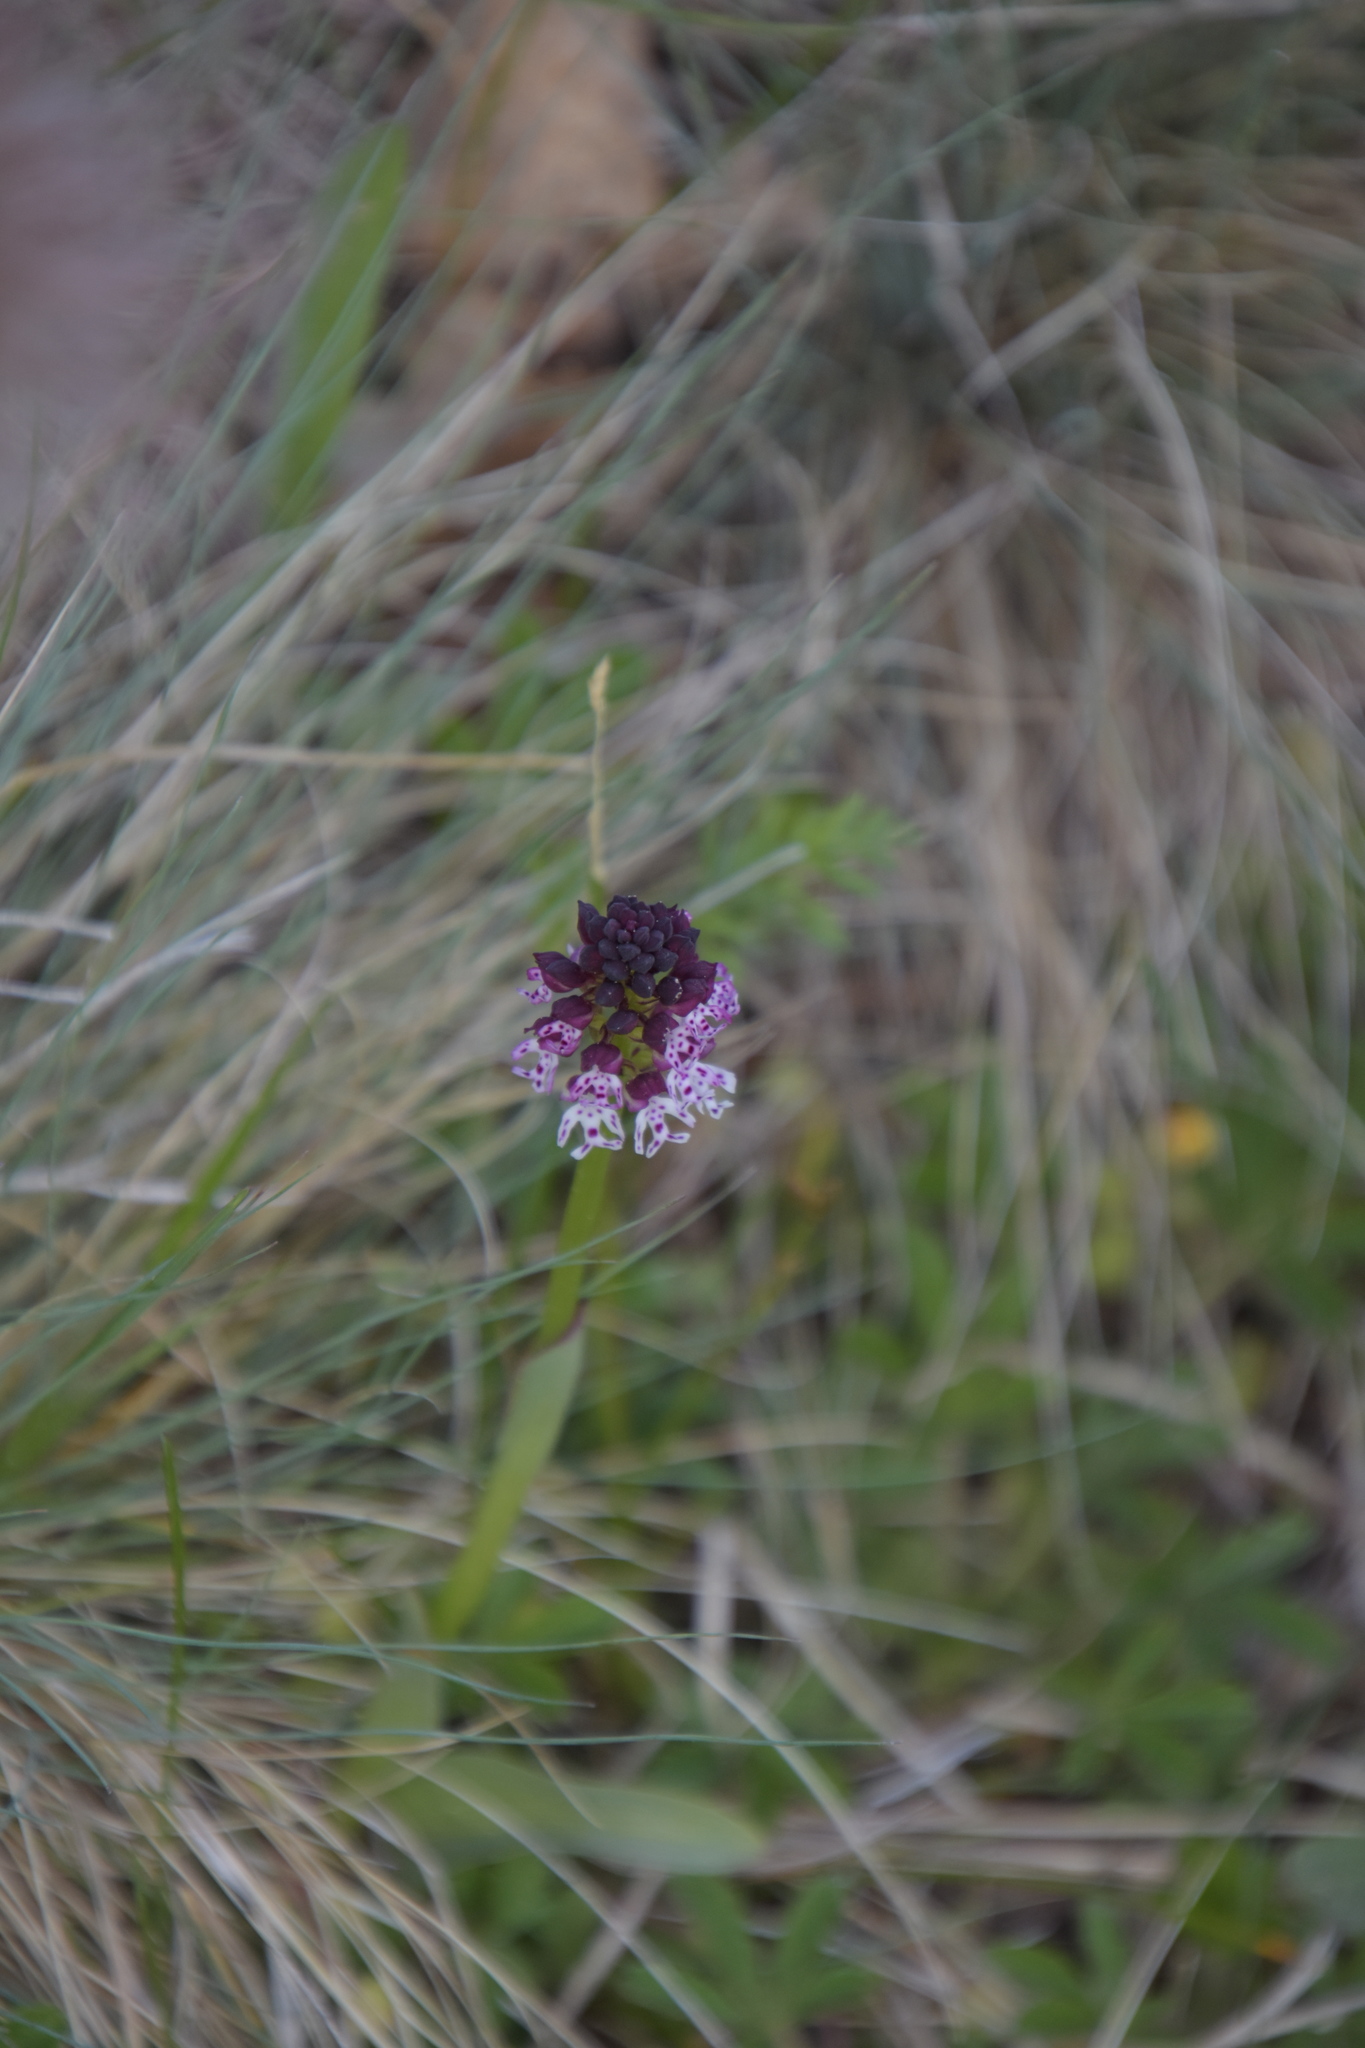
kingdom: Plantae
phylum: Tracheophyta
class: Liliopsida
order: Asparagales
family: Orchidaceae
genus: Neotinea
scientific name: Neotinea ustulata
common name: Burnt orchid
